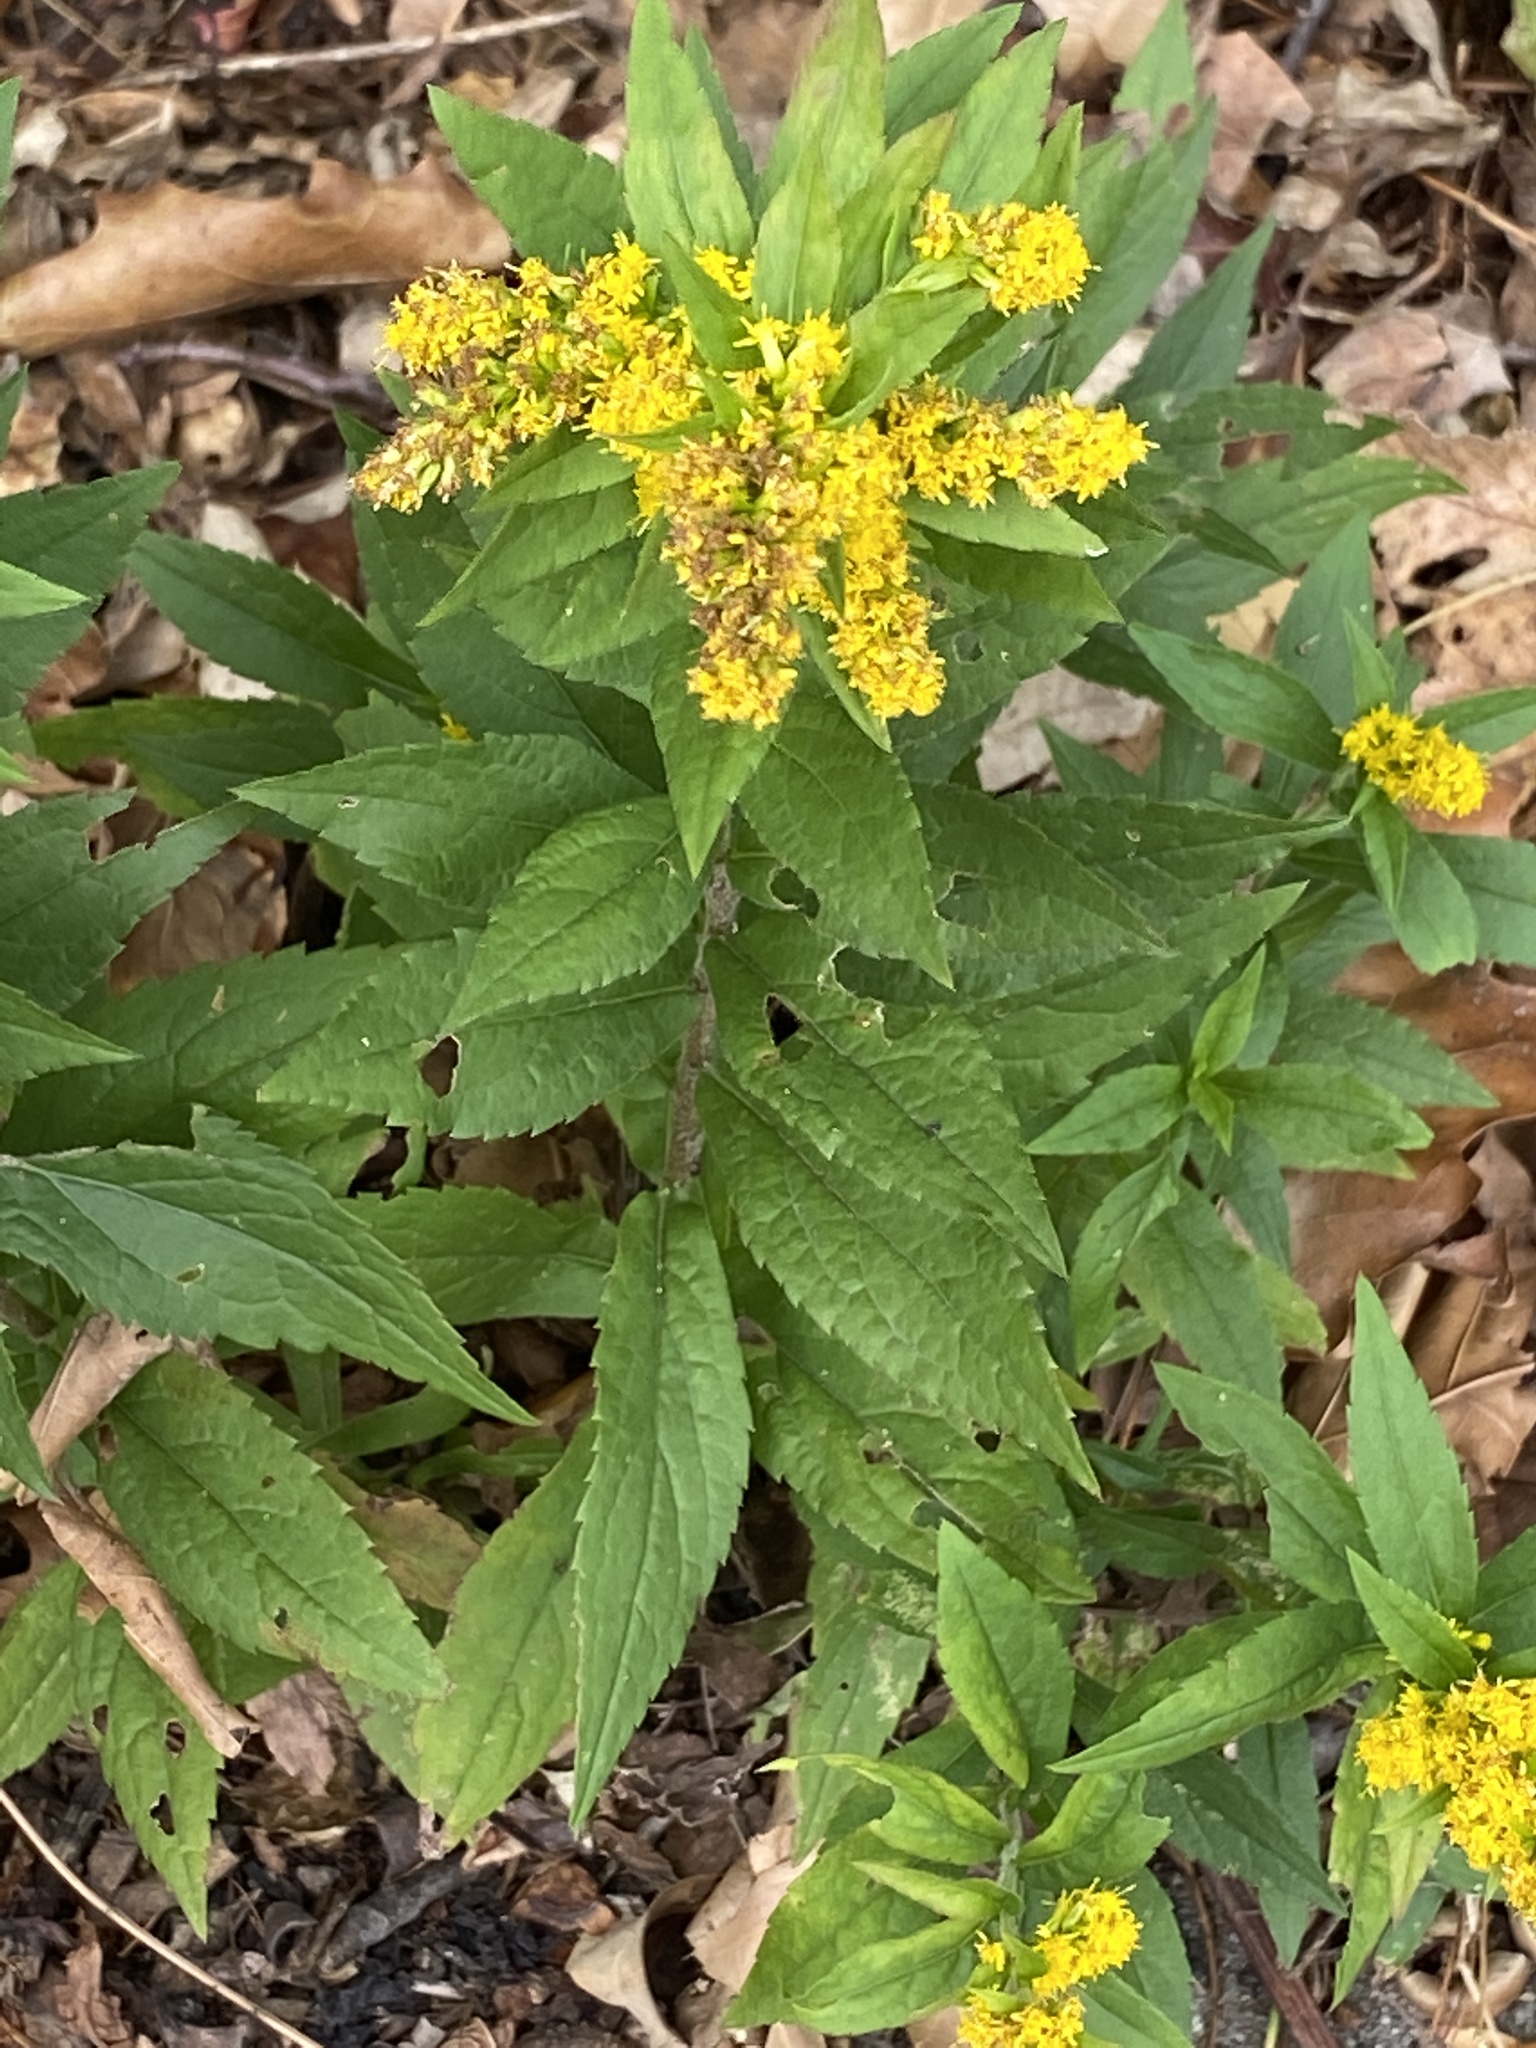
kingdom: Plantae
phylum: Tracheophyta
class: Magnoliopsida
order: Asterales
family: Asteraceae
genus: Solidago
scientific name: Solidago rugosa
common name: Rough-stemmed goldenrod
